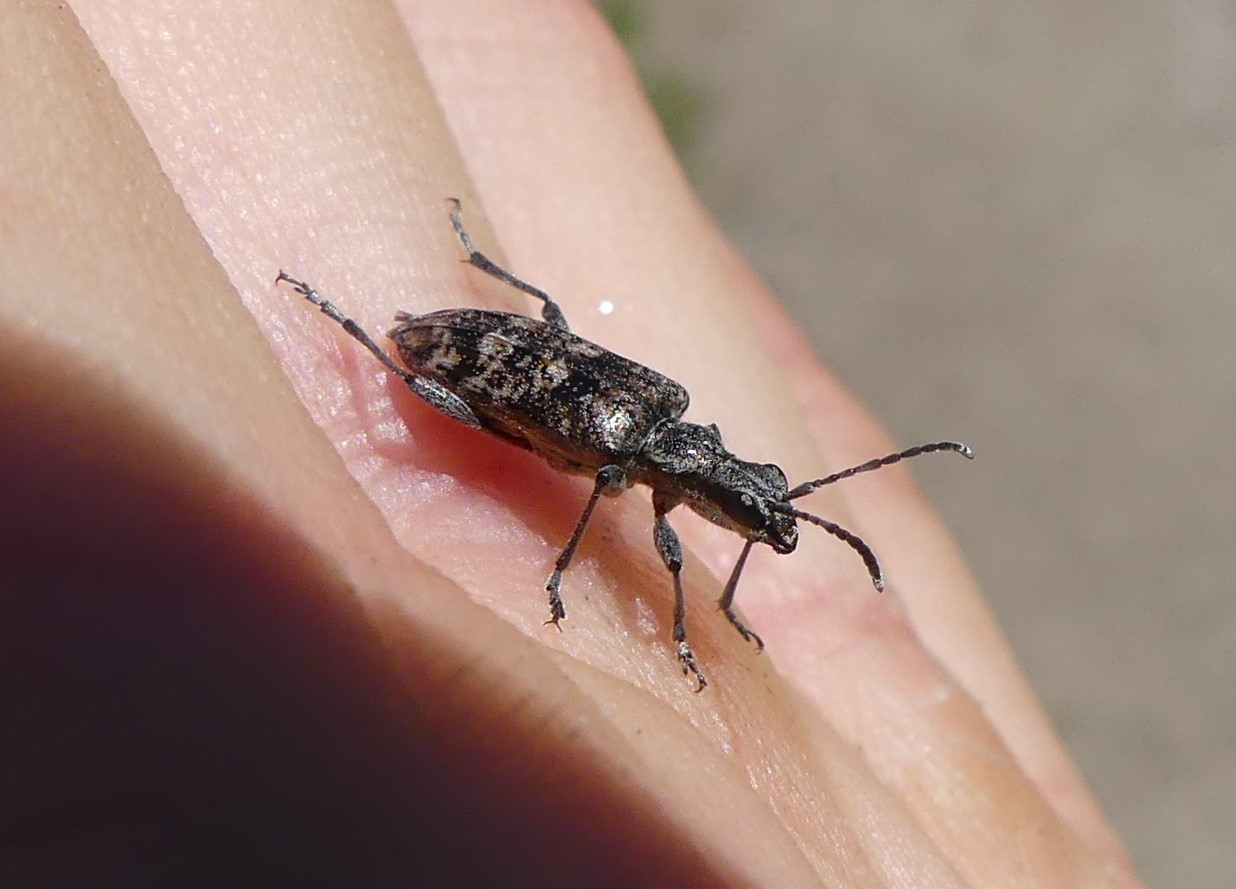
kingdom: Animalia
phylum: Arthropoda
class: Insecta
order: Coleoptera
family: Cerambycidae
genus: Rhagium
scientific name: Rhagium inquisitor
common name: Ribbed pine borer
